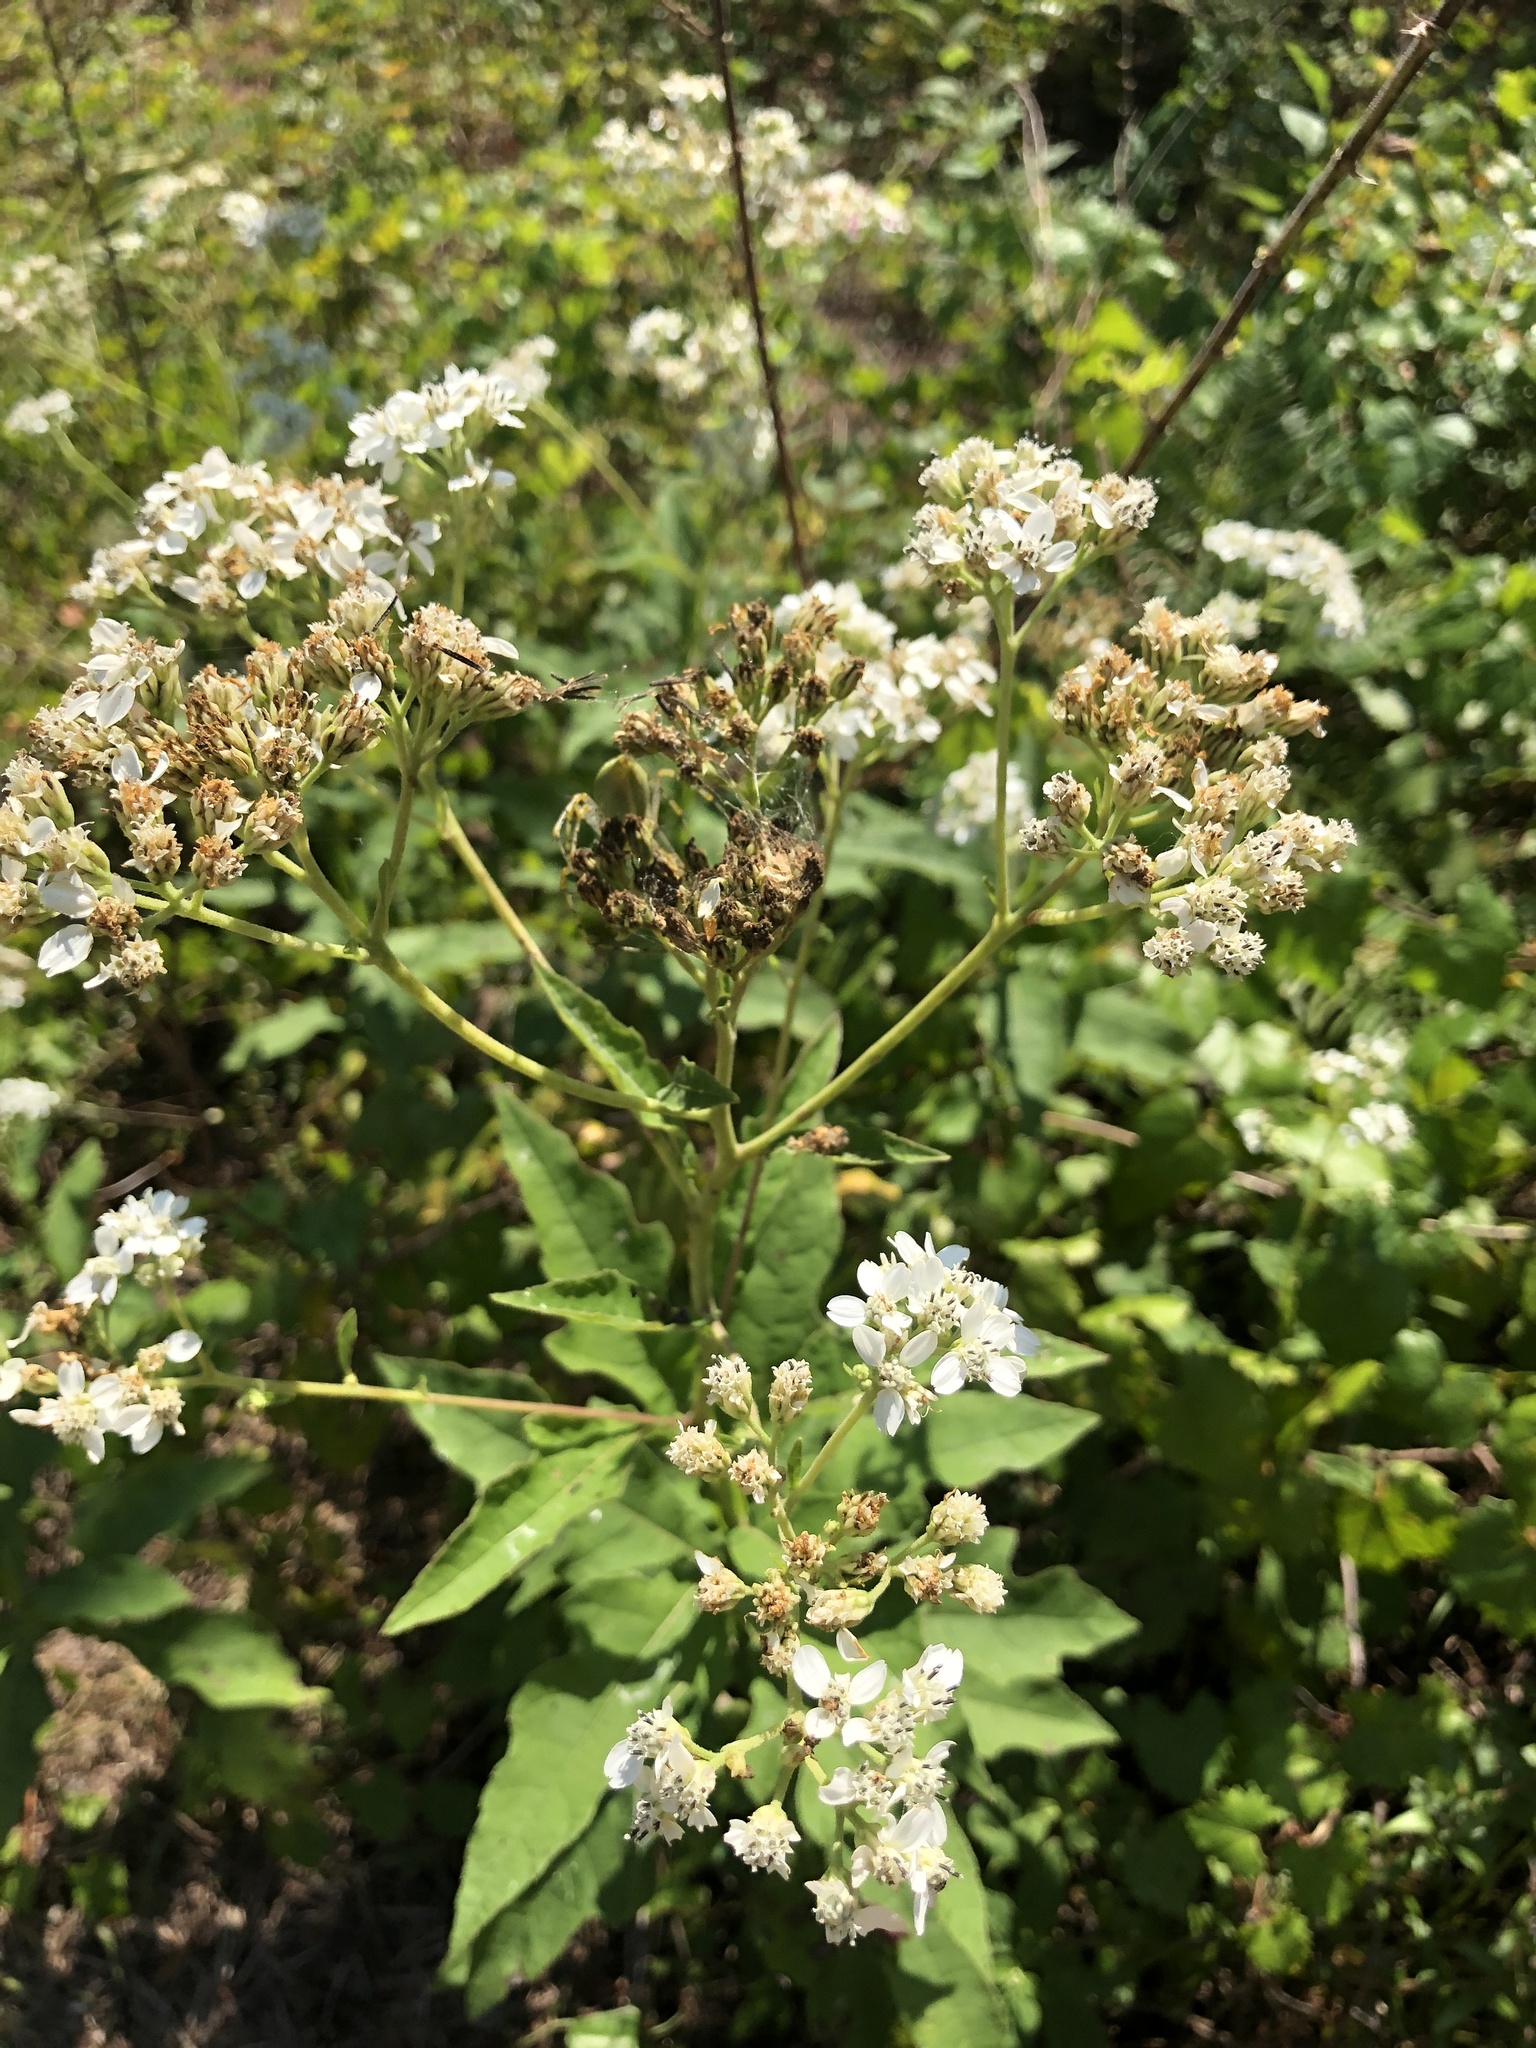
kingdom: Plantae
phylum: Tracheophyta
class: Magnoliopsida
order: Asterales
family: Asteraceae
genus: Verbesina
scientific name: Verbesina virginica
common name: Frostweed
